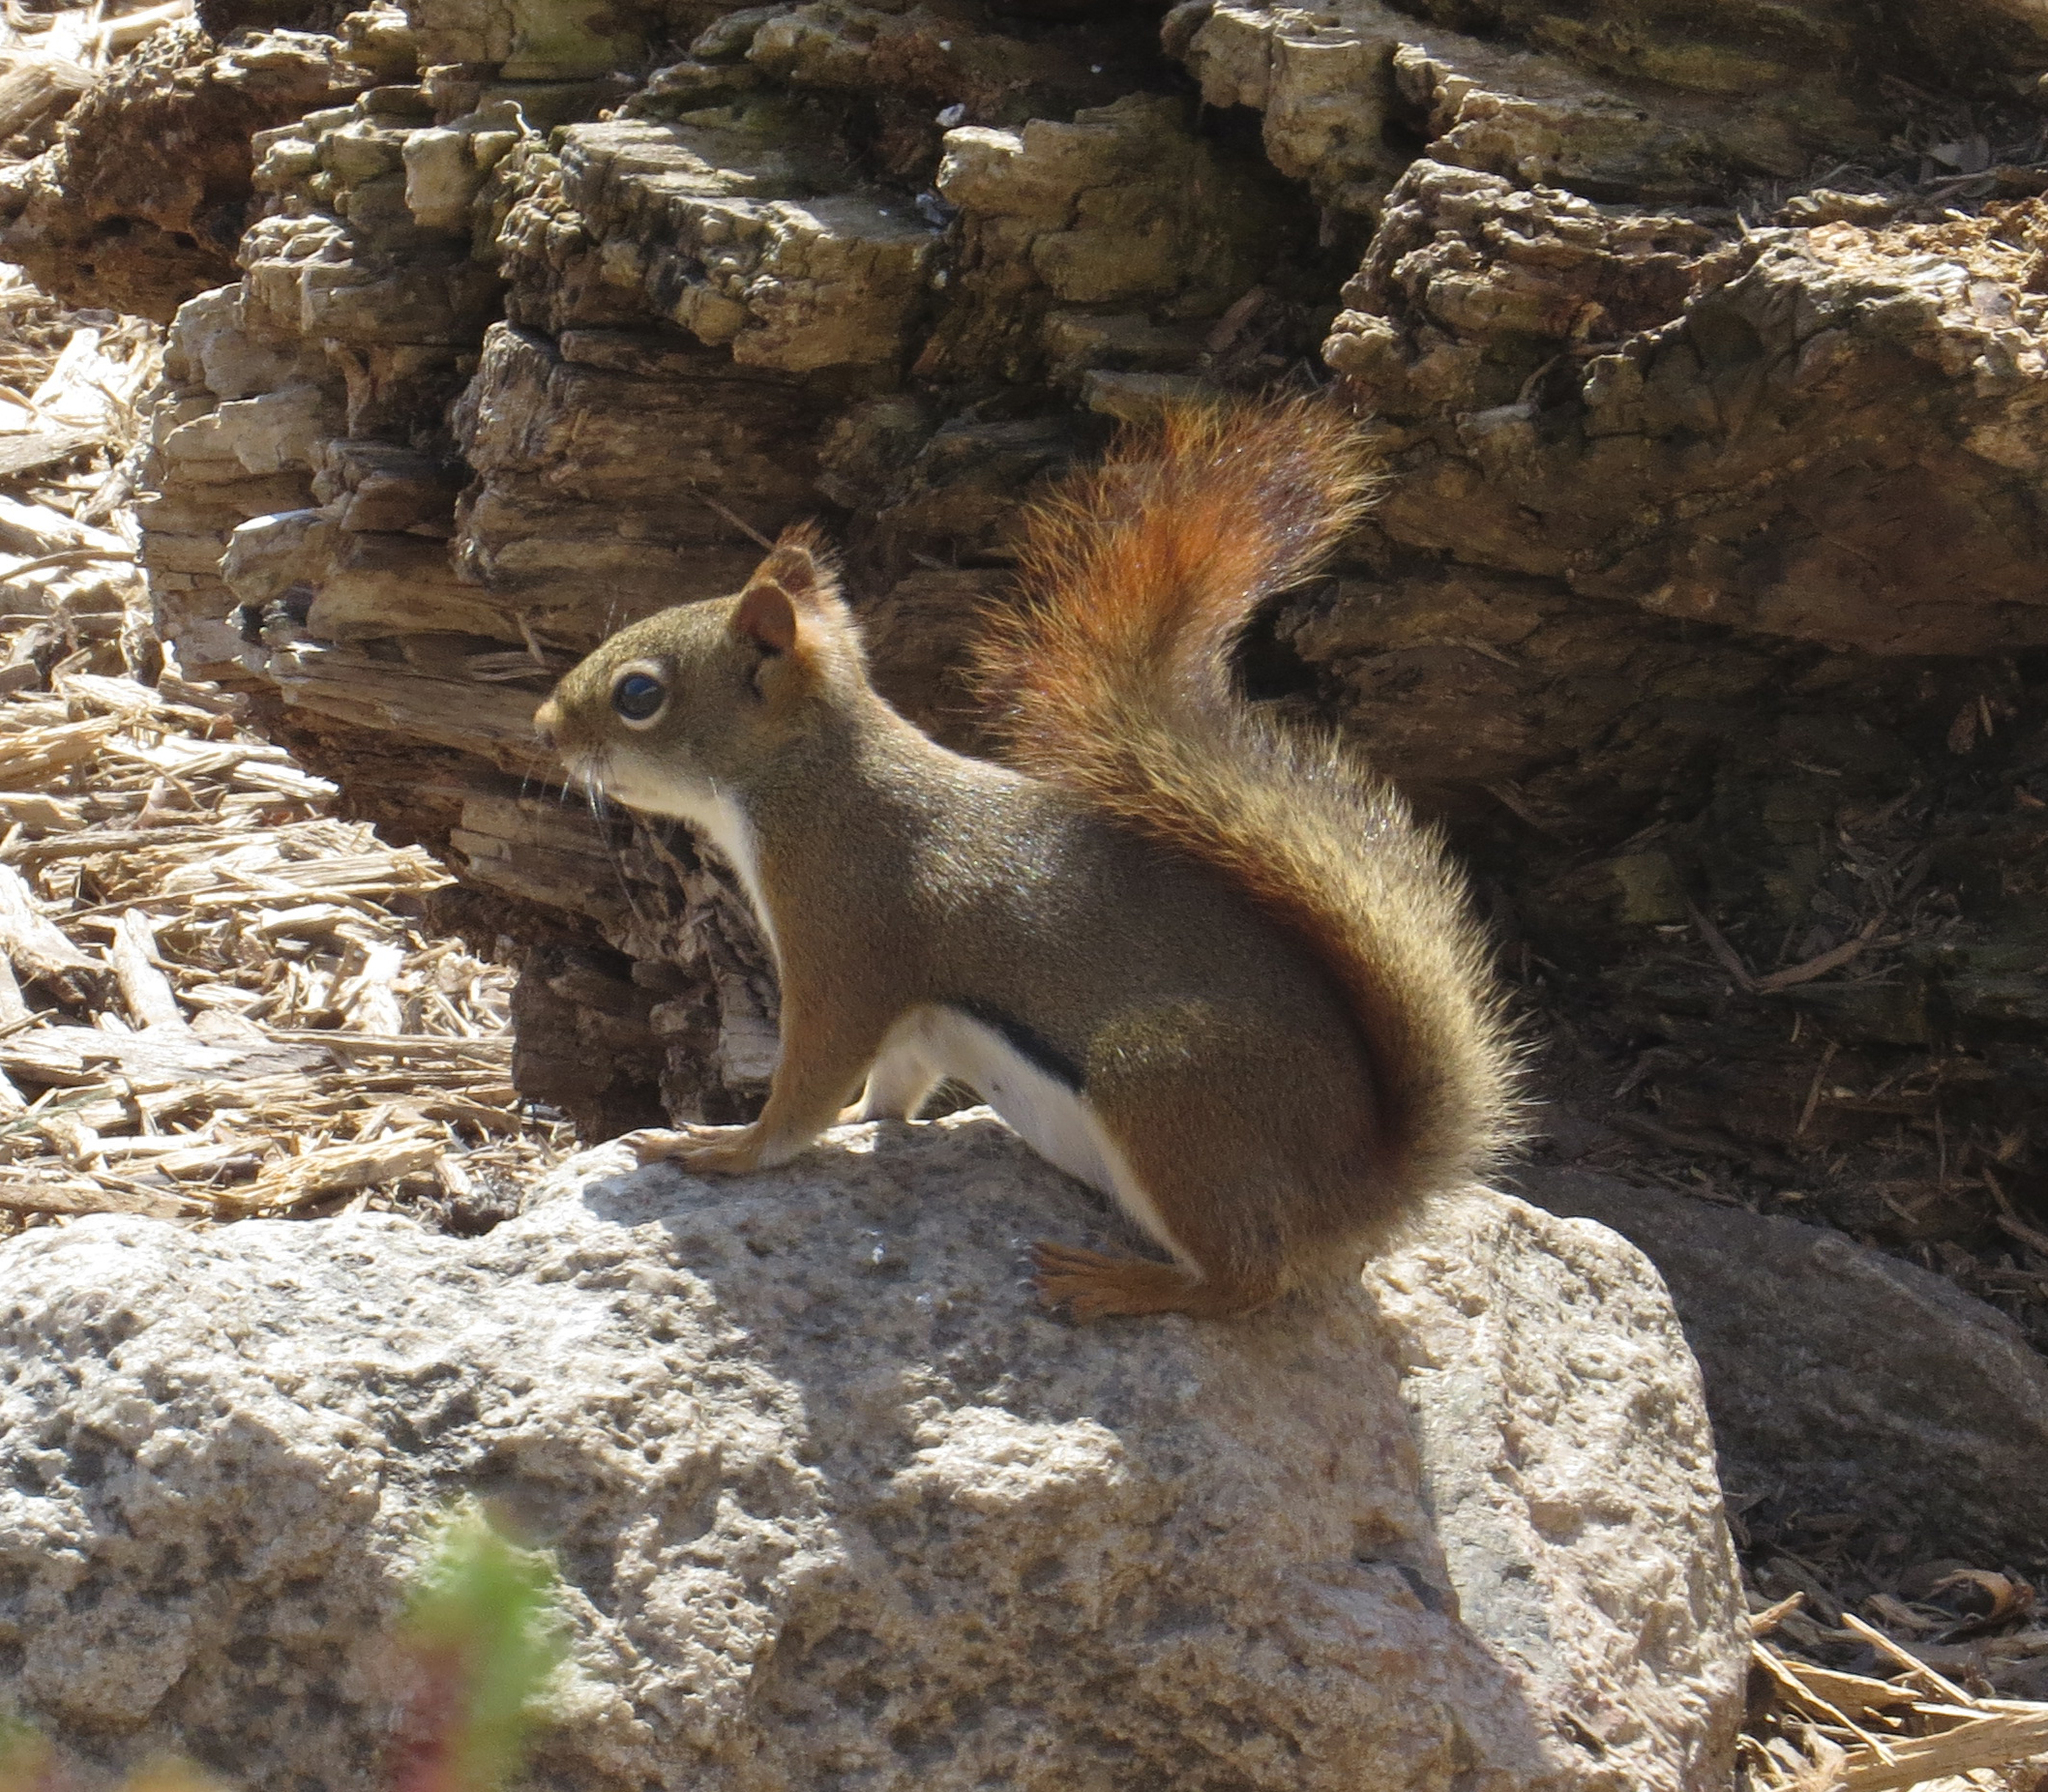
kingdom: Animalia
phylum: Chordata
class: Mammalia
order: Rodentia
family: Sciuridae
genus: Tamiasciurus
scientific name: Tamiasciurus hudsonicus
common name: Red squirrel
